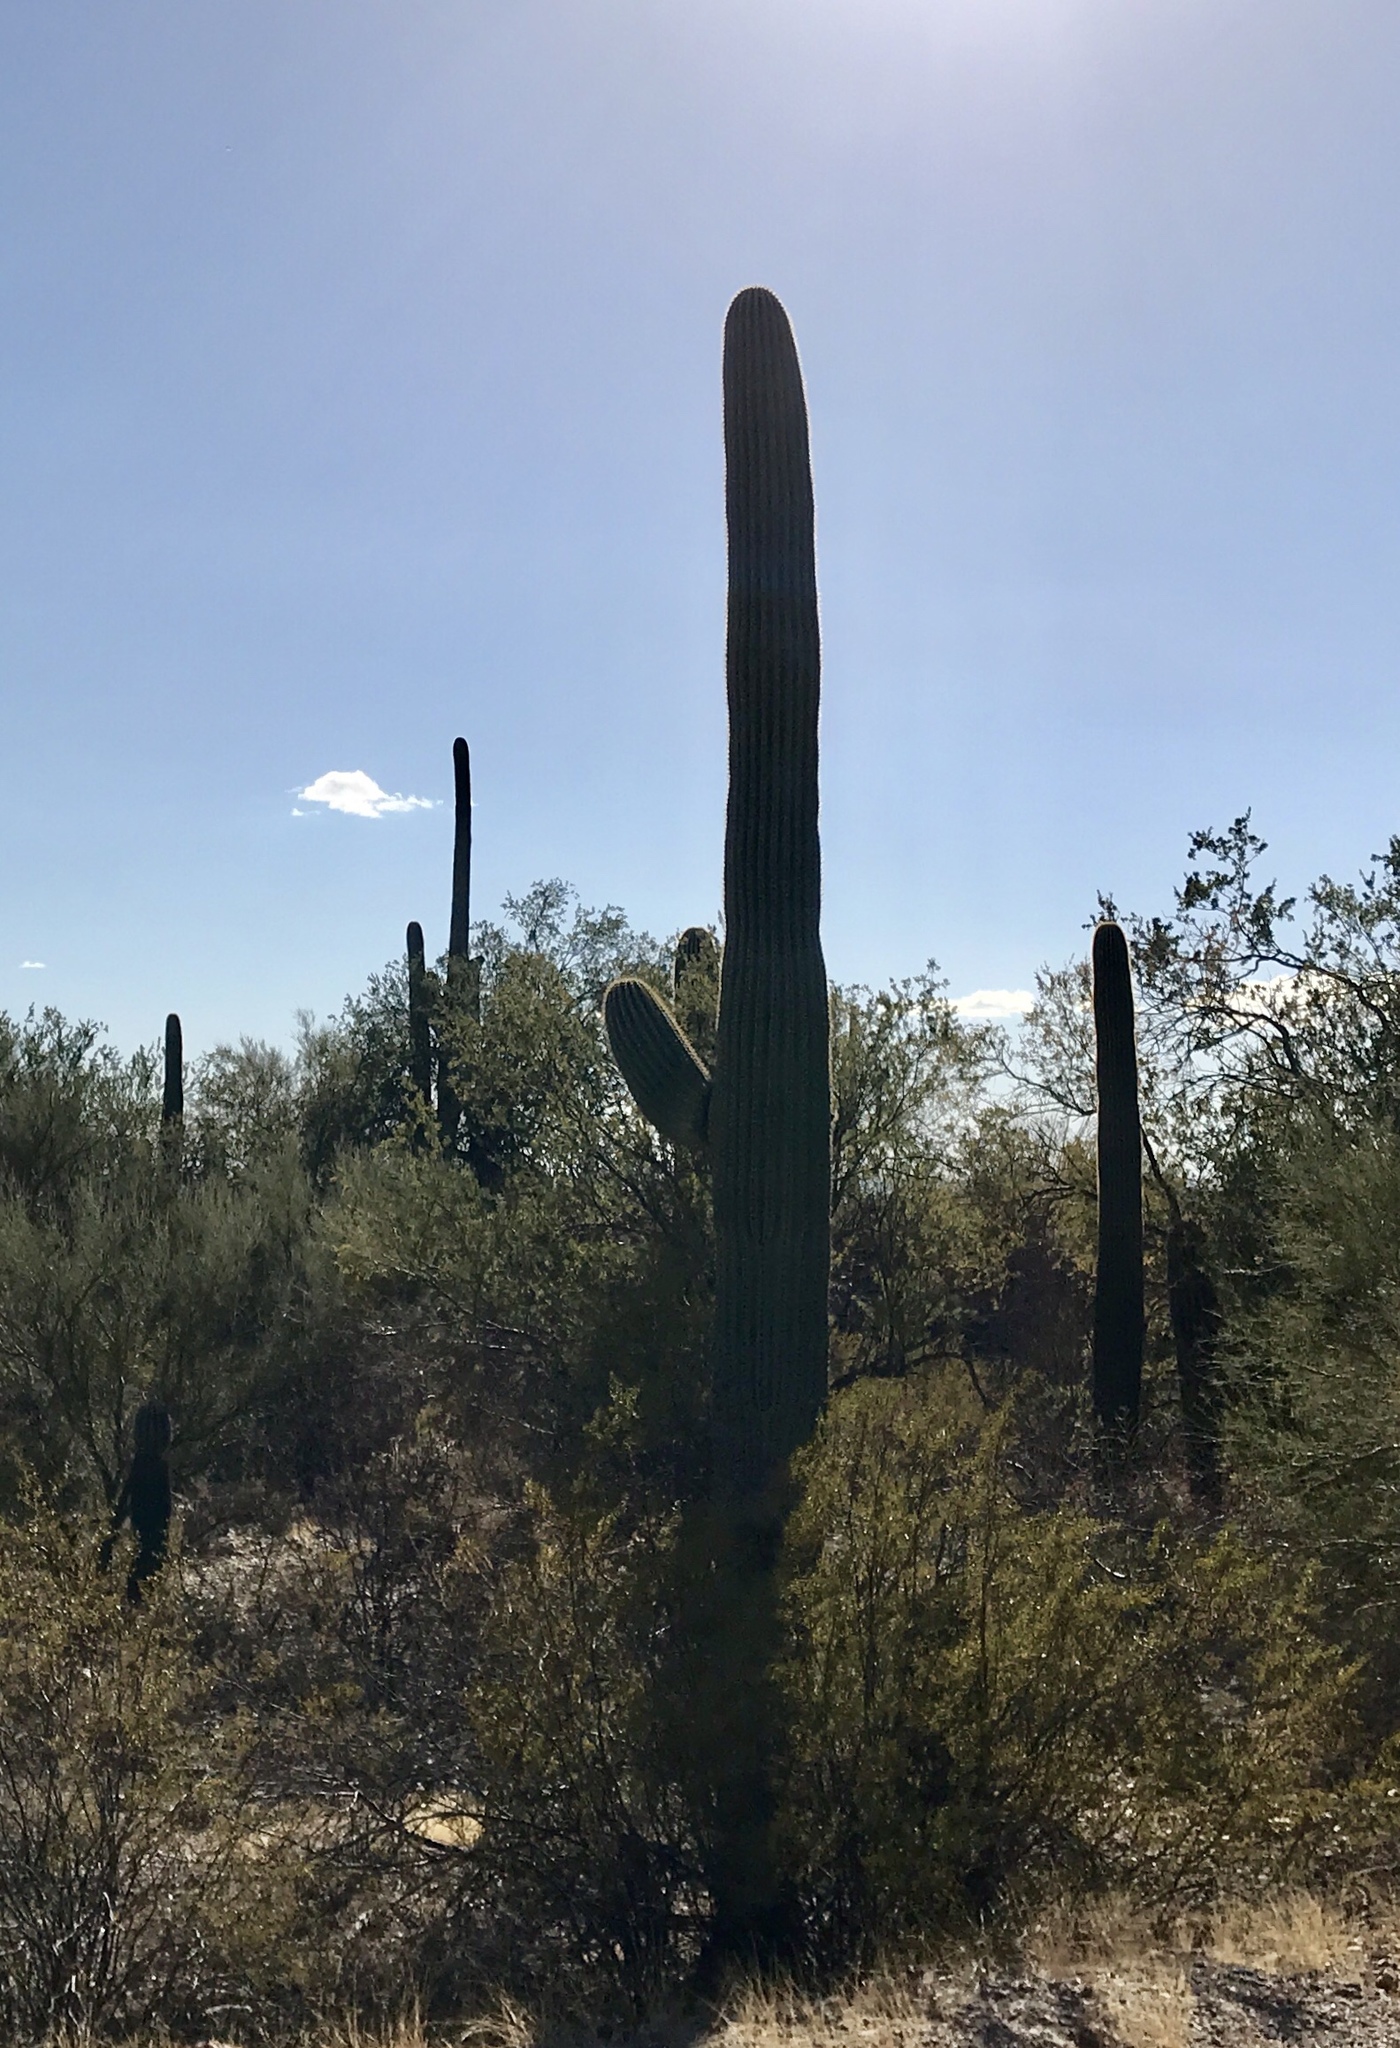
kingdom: Plantae
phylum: Tracheophyta
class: Magnoliopsida
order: Caryophyllales
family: Cactaceae
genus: Carnegiea
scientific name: Carnegiea gigantea
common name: Saguaro
